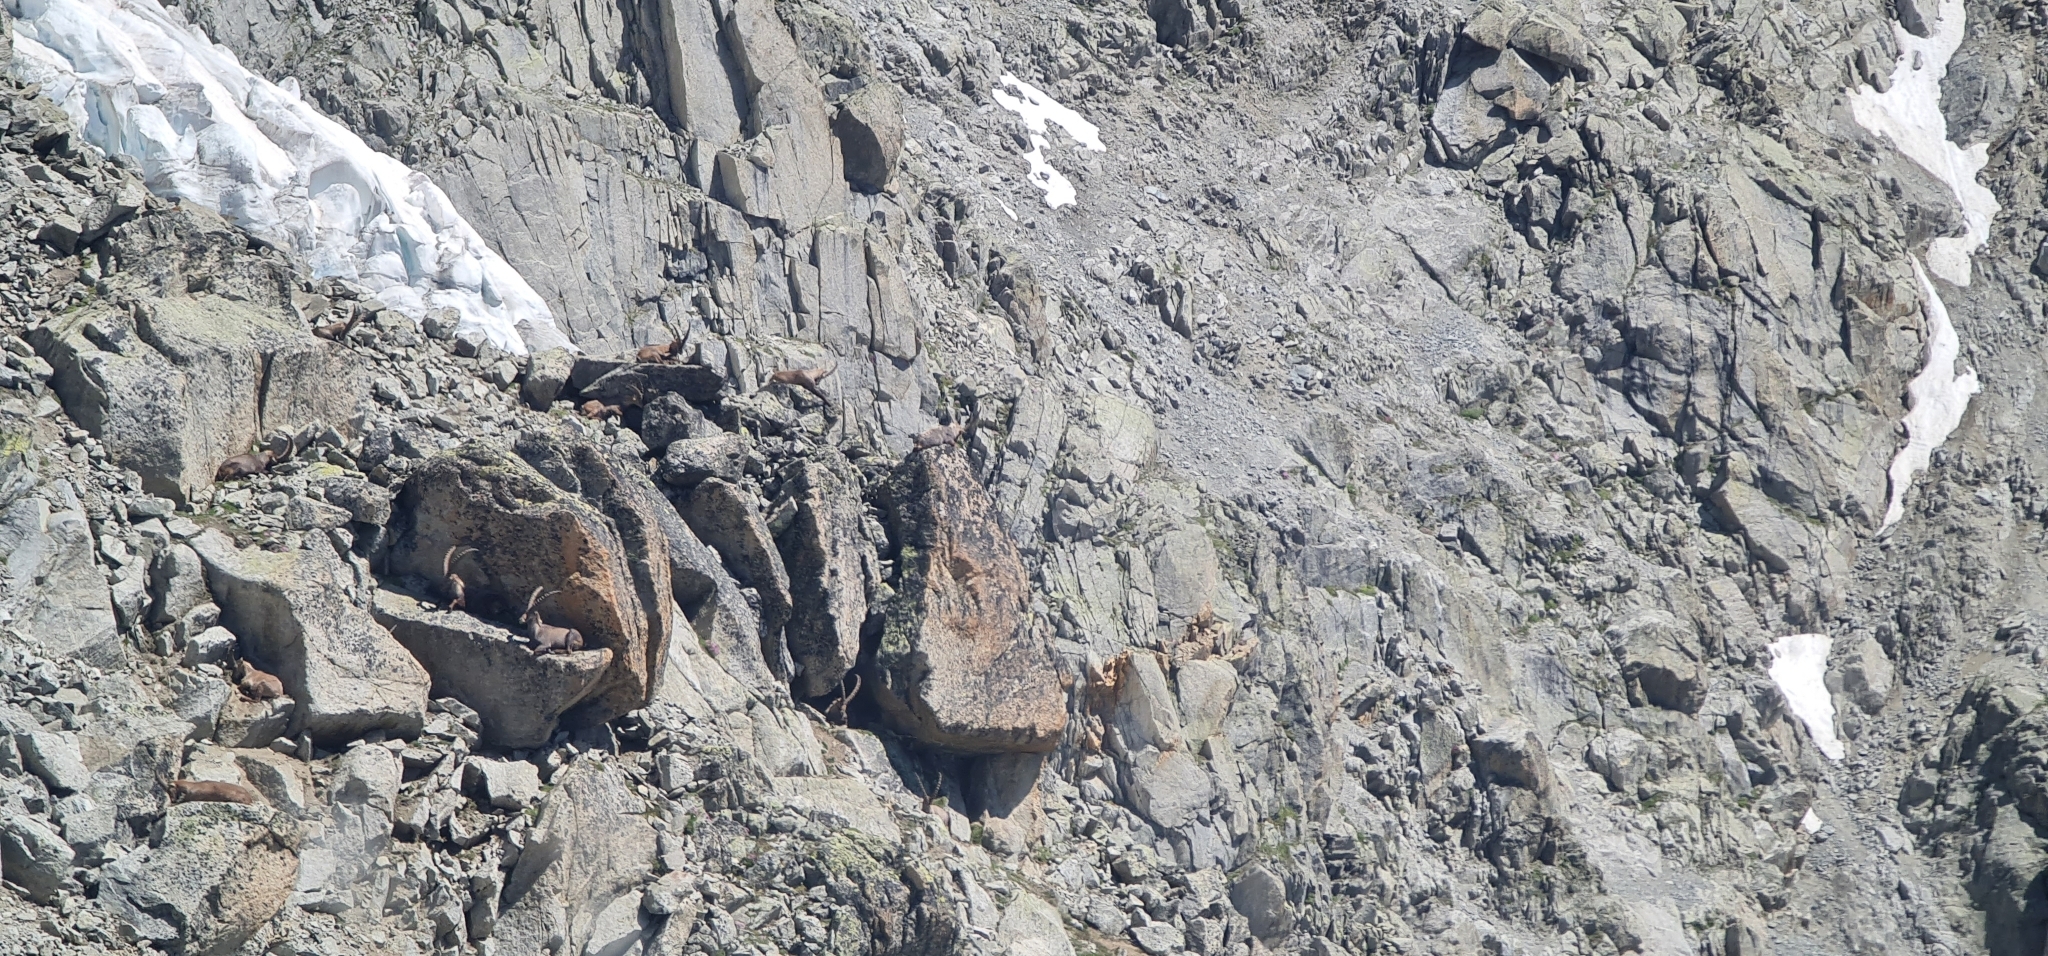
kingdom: Animalia
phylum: Chordata
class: Mammalia
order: Artiodactyla
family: Bovidae
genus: Capra
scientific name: Capra ibex
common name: Alpine ibex
